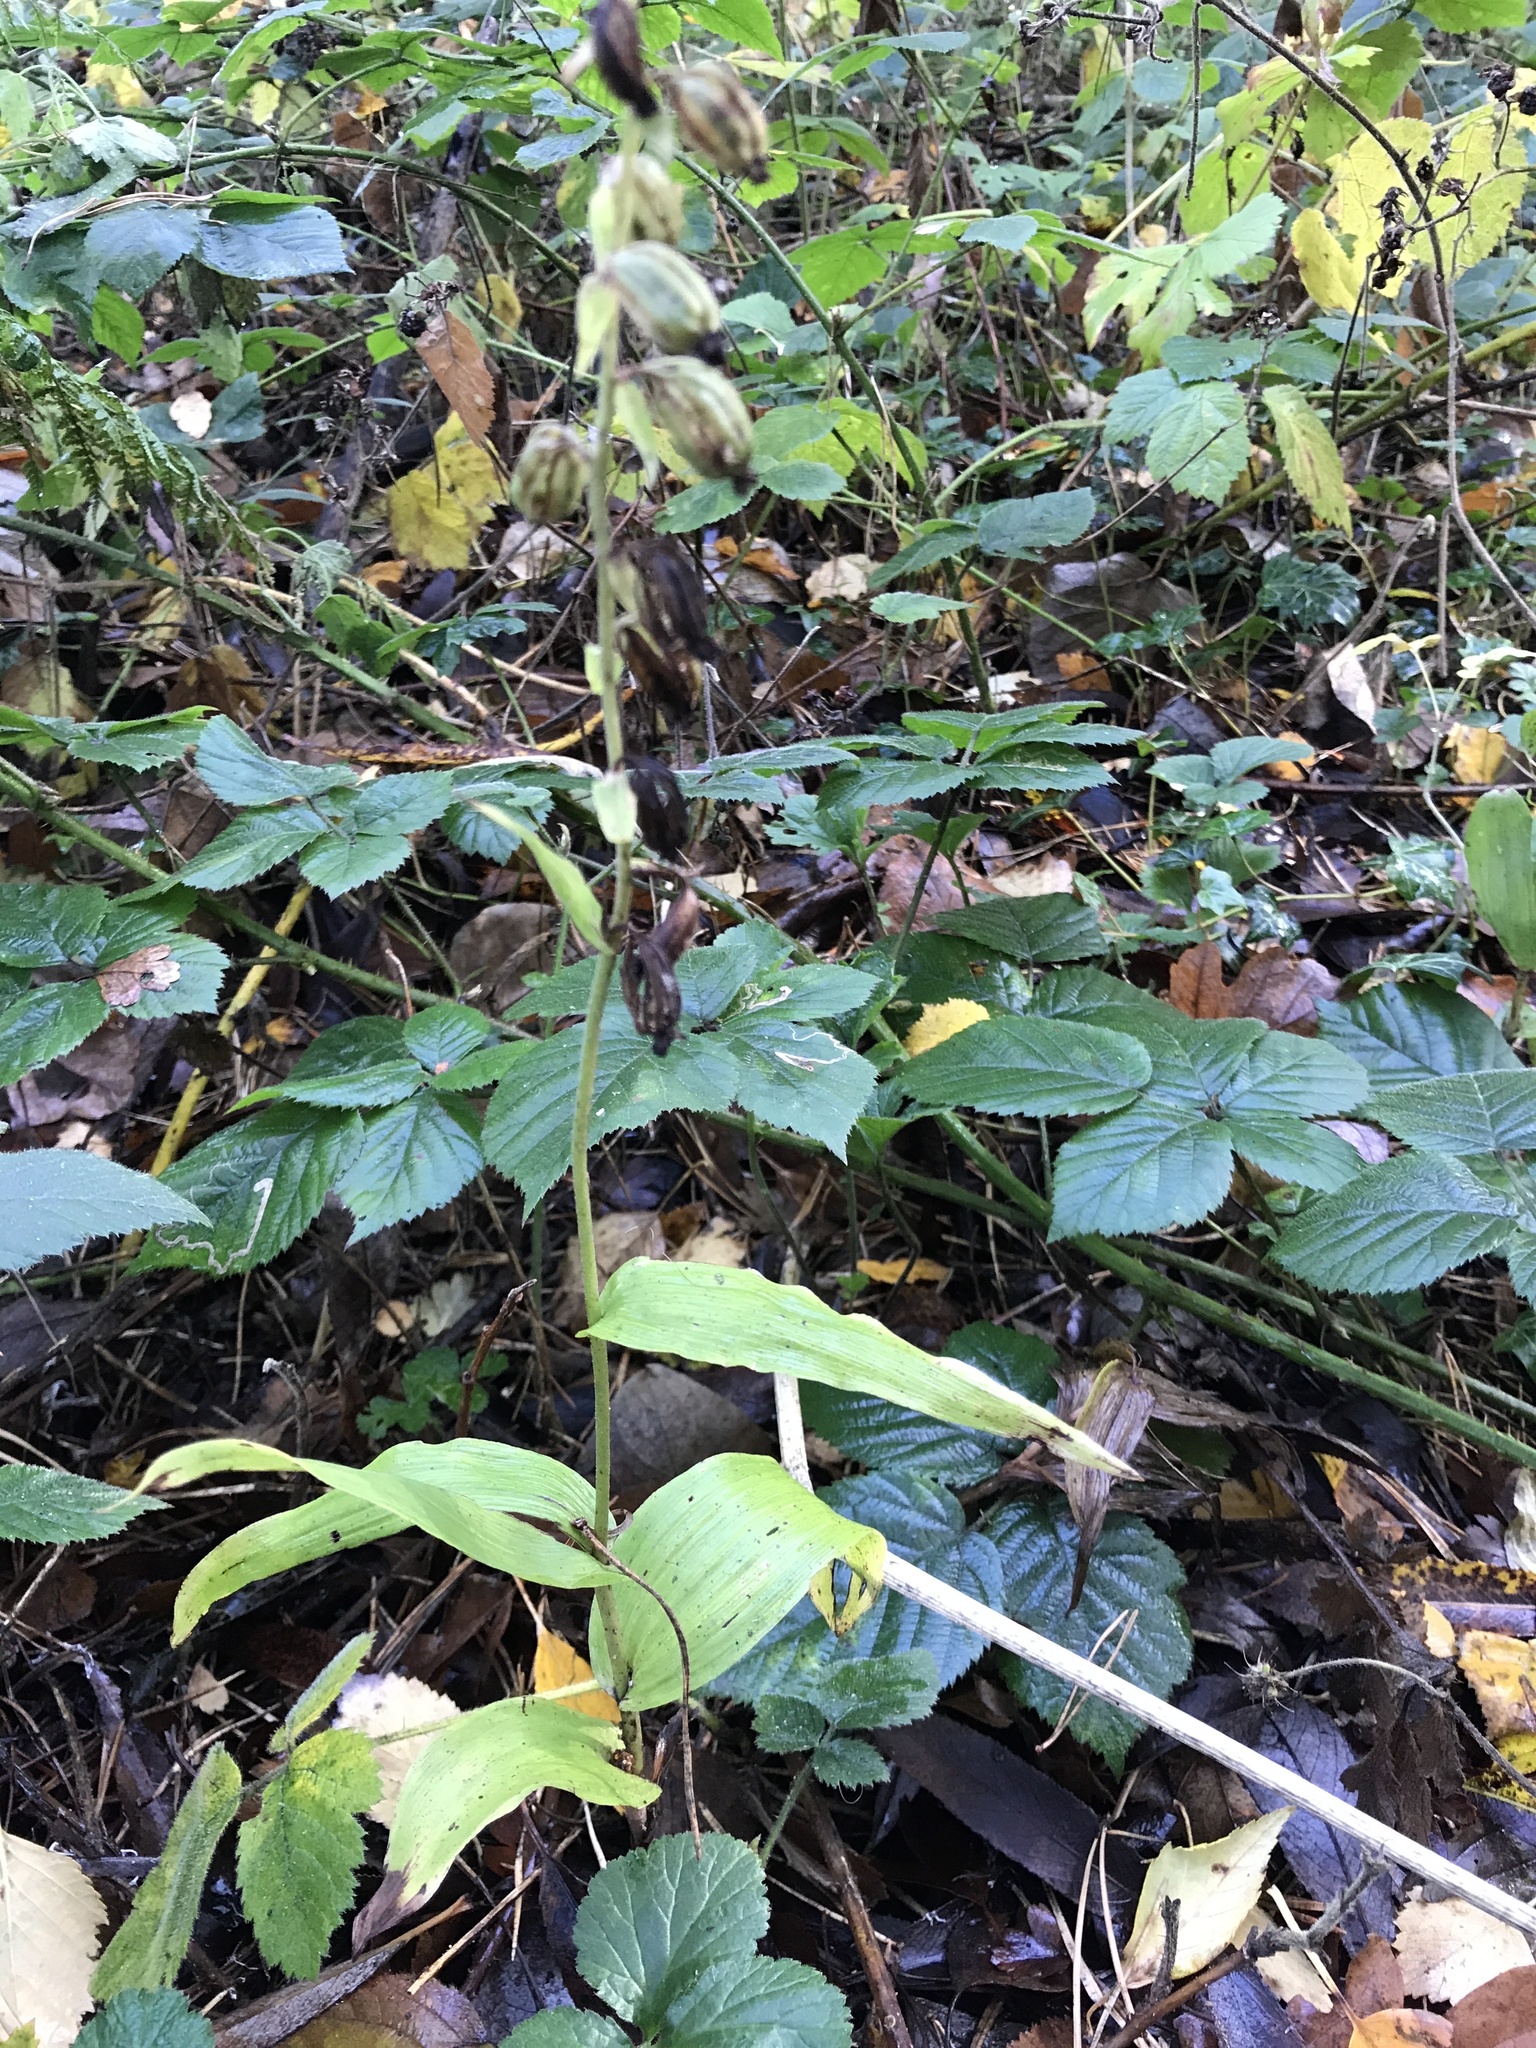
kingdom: Plantae
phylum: Tracheophyta
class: Liliopsida
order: Asparagales
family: Orchidaceae
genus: Epipactis
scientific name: Epipactis helleborine
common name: Broad-leaved helleborine
